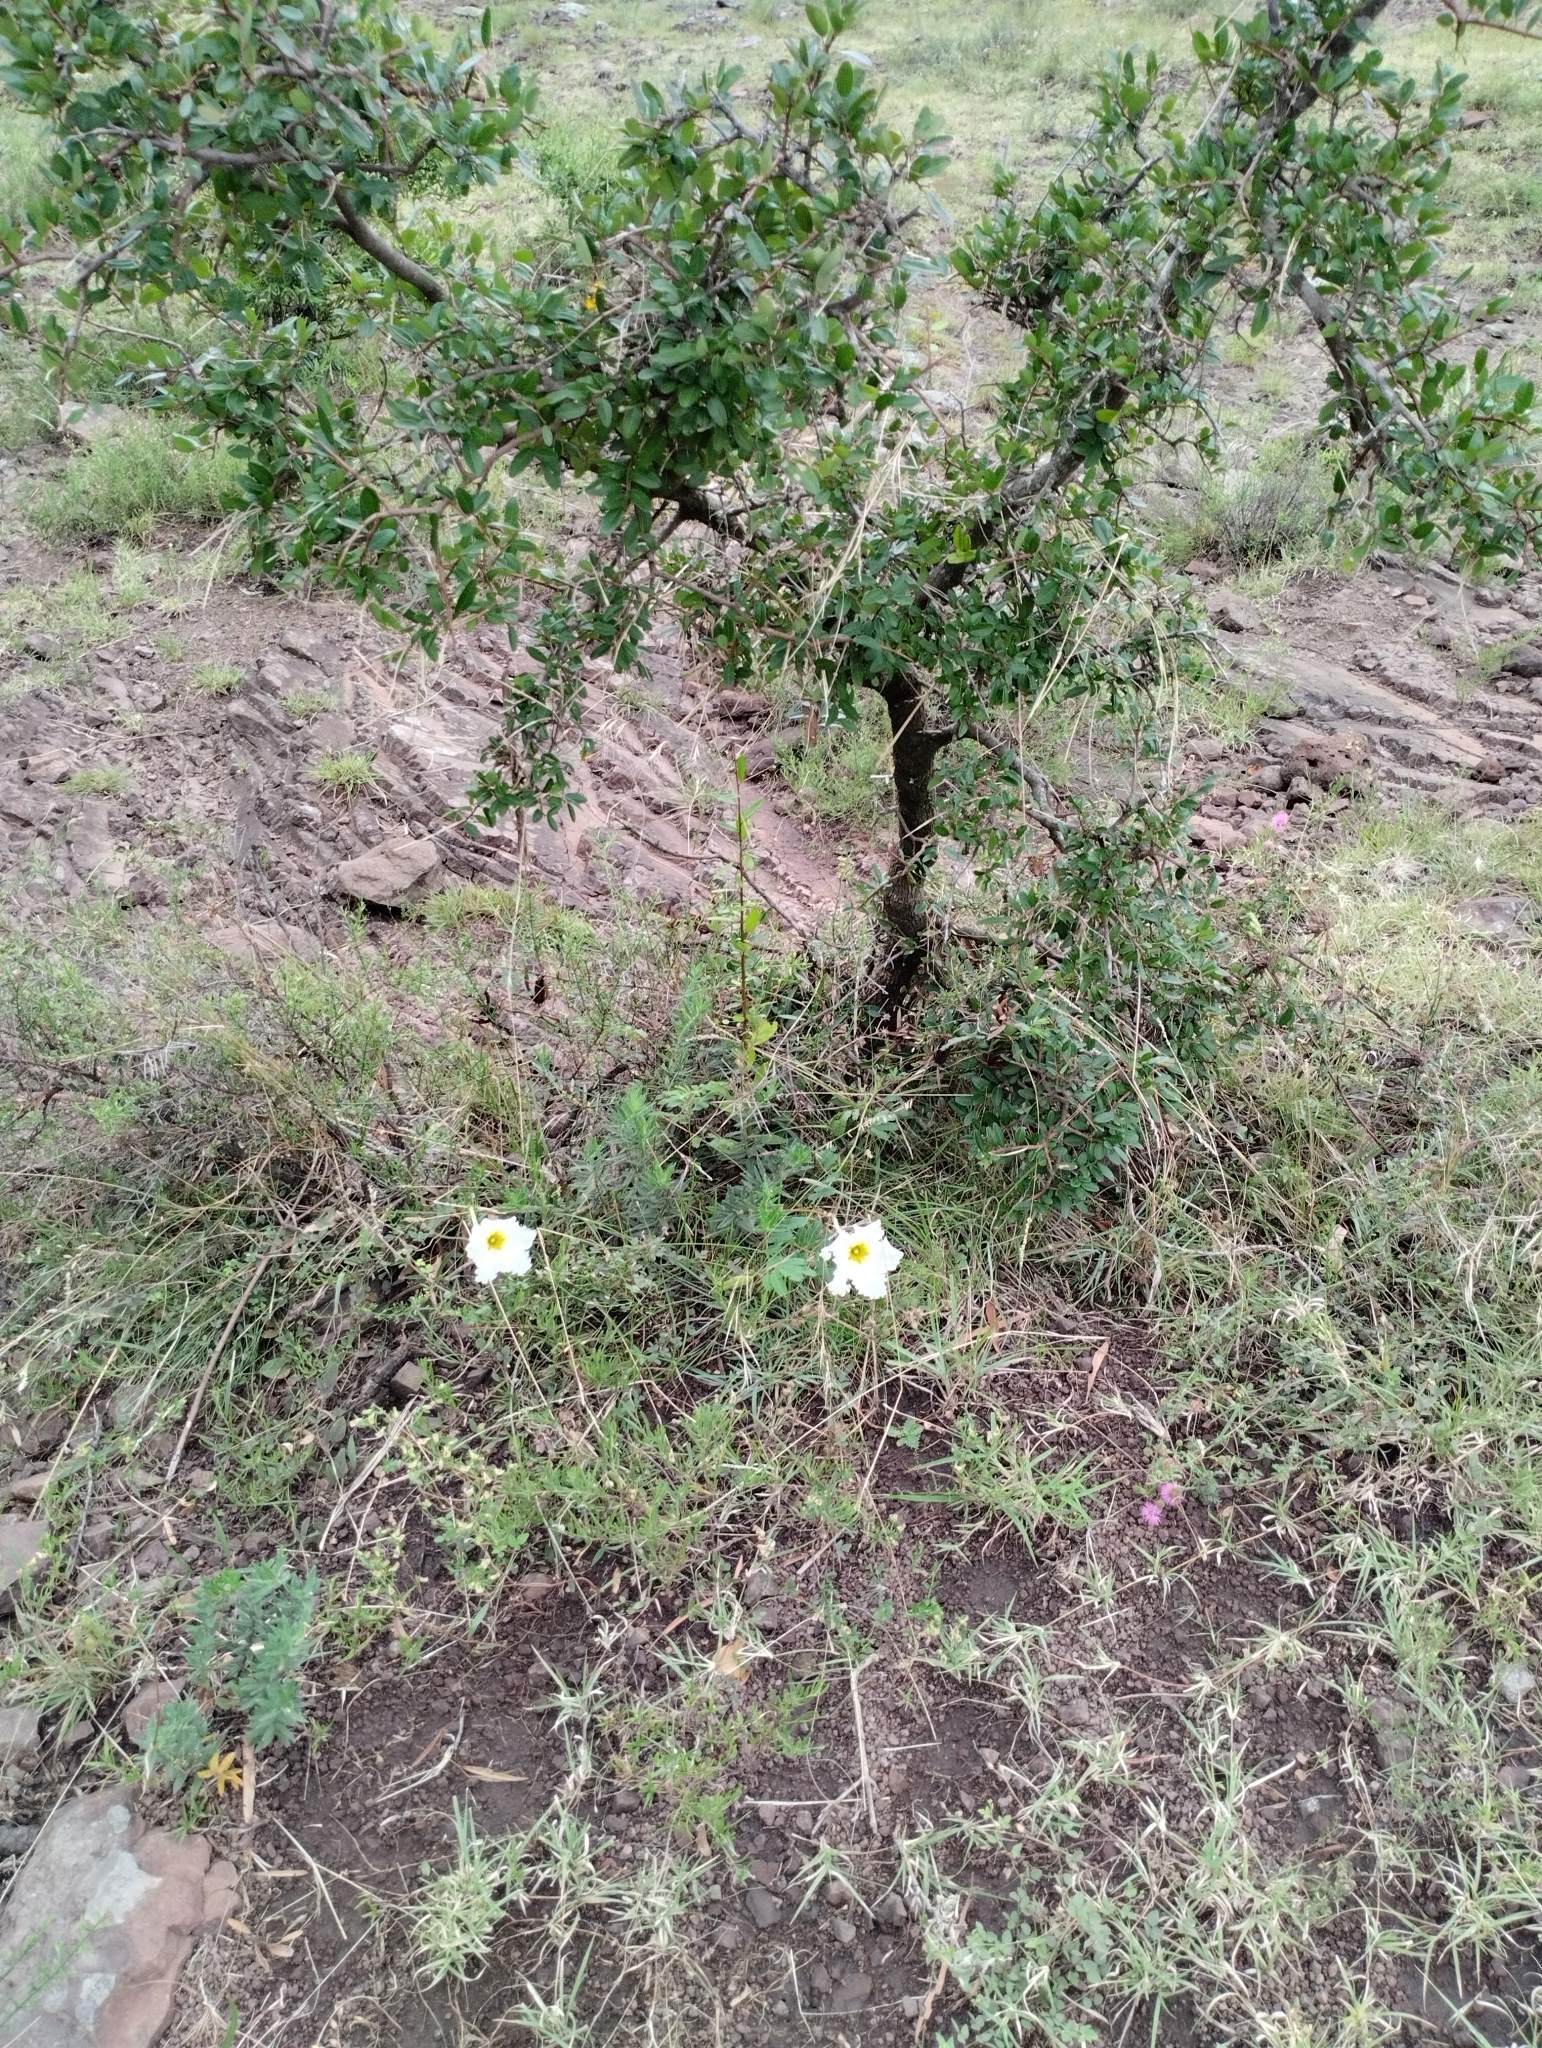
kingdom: Plantae
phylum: Tracheophyta
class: Magnoliopsida
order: Gentianales
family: Apocynaceae
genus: Mandevilla
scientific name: Mandevilla petraea
